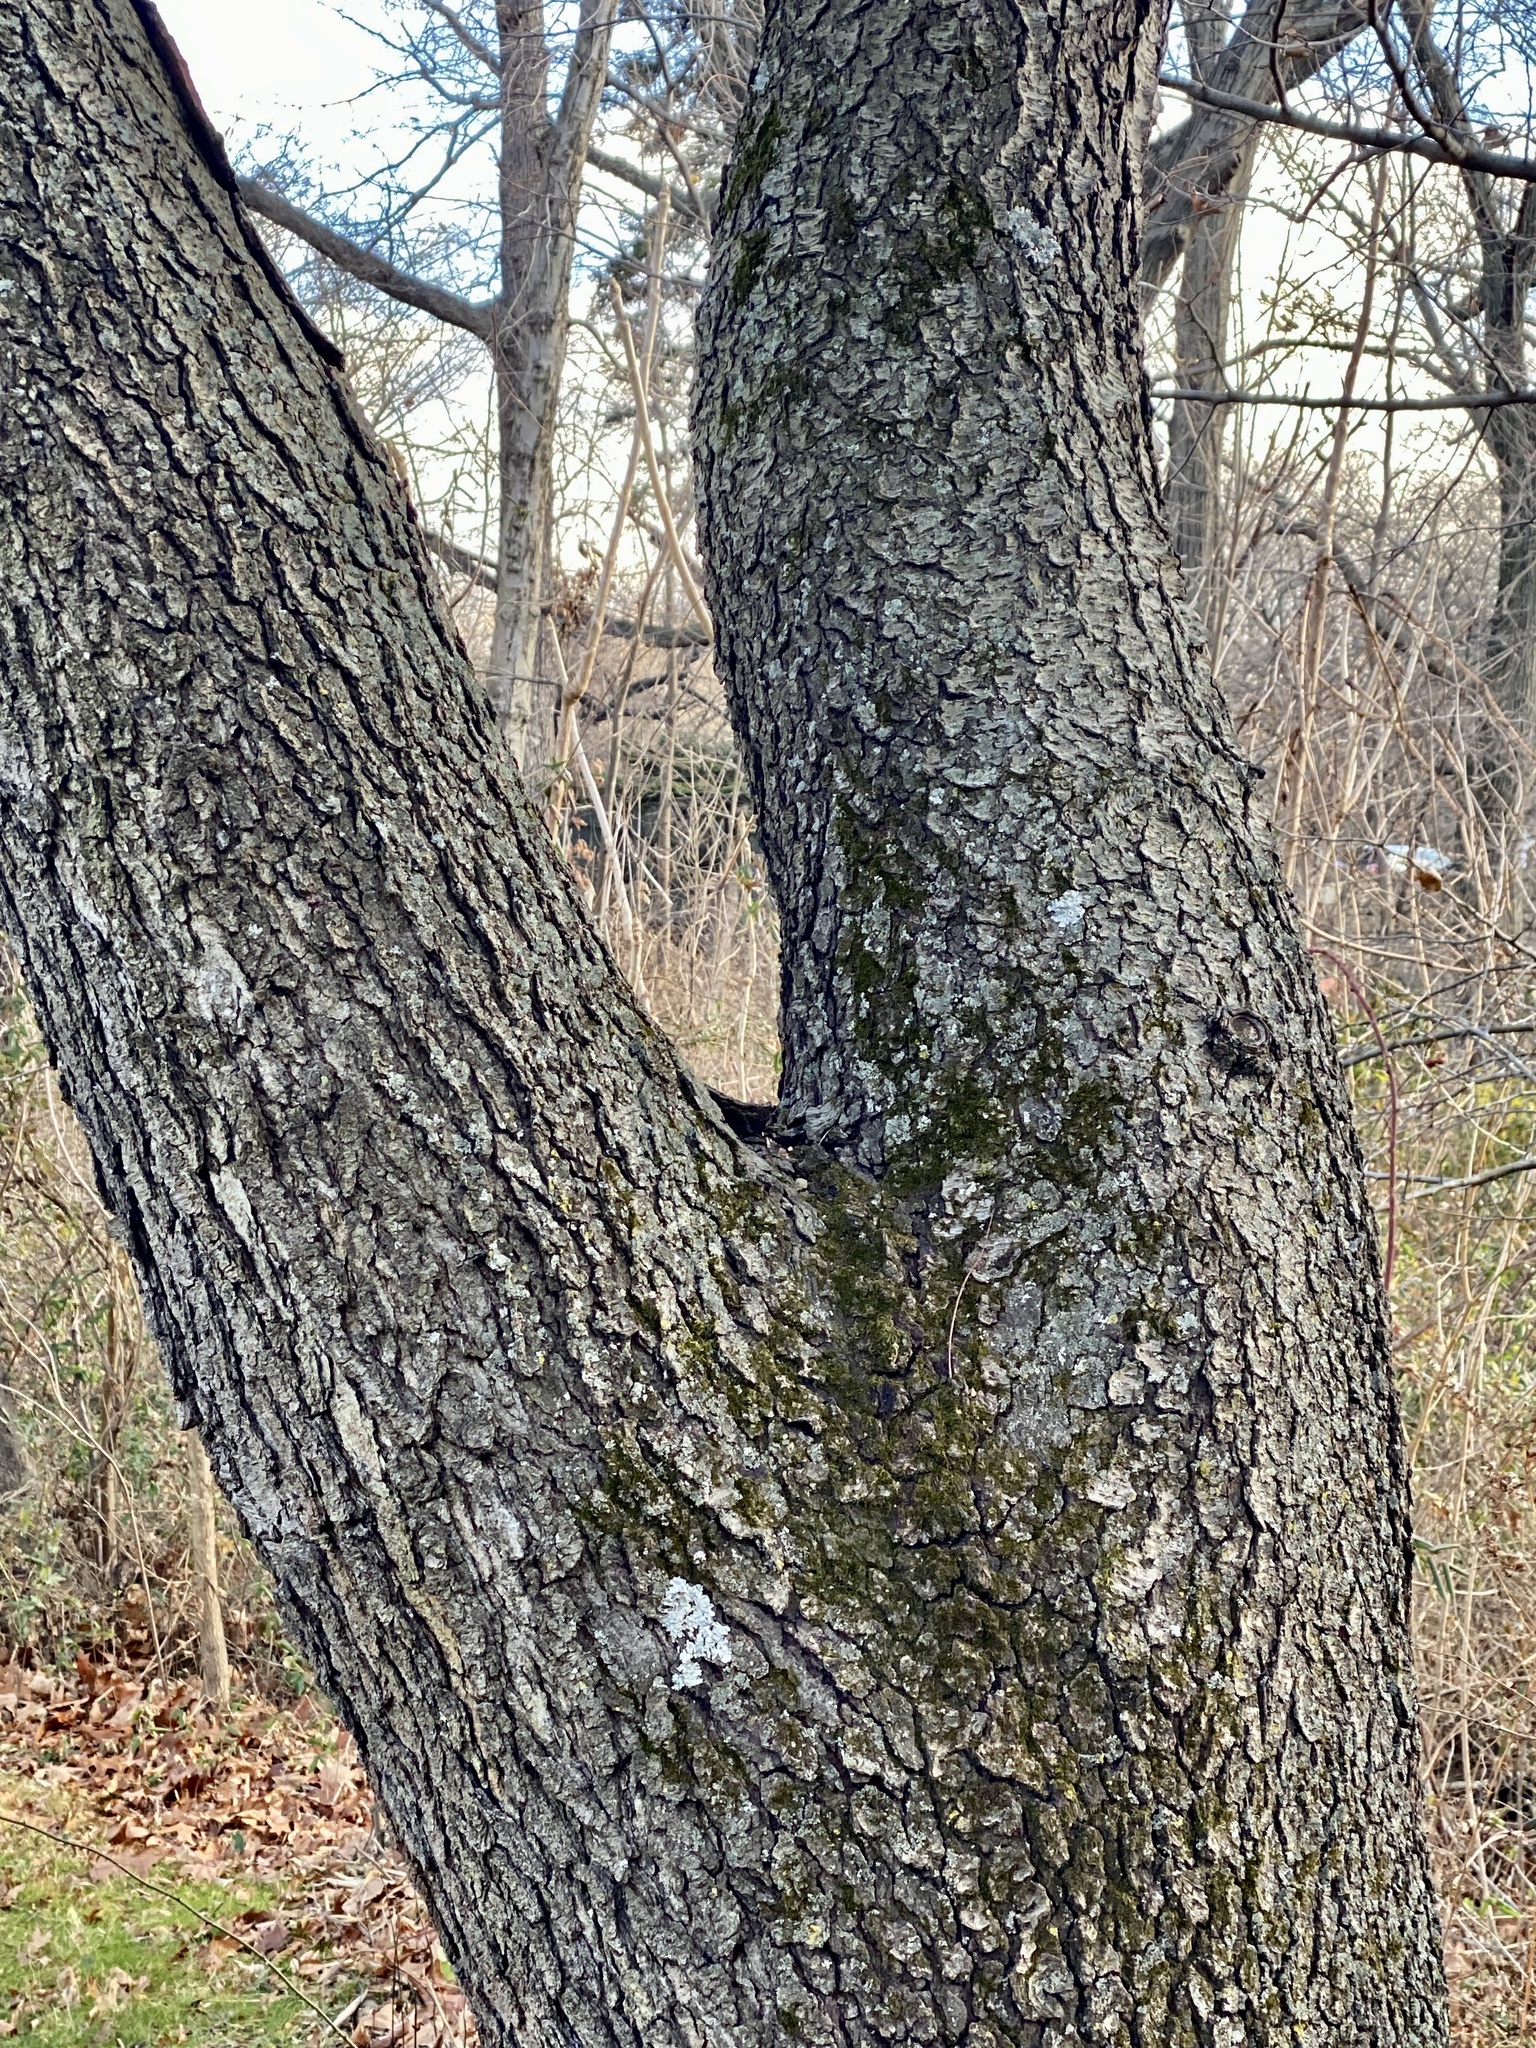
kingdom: Plantae
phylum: Tracheophyta
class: Magnoliopsida
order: Rosales
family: Rosaceae
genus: Prunus
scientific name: Prunus serotina
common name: Black cherry
